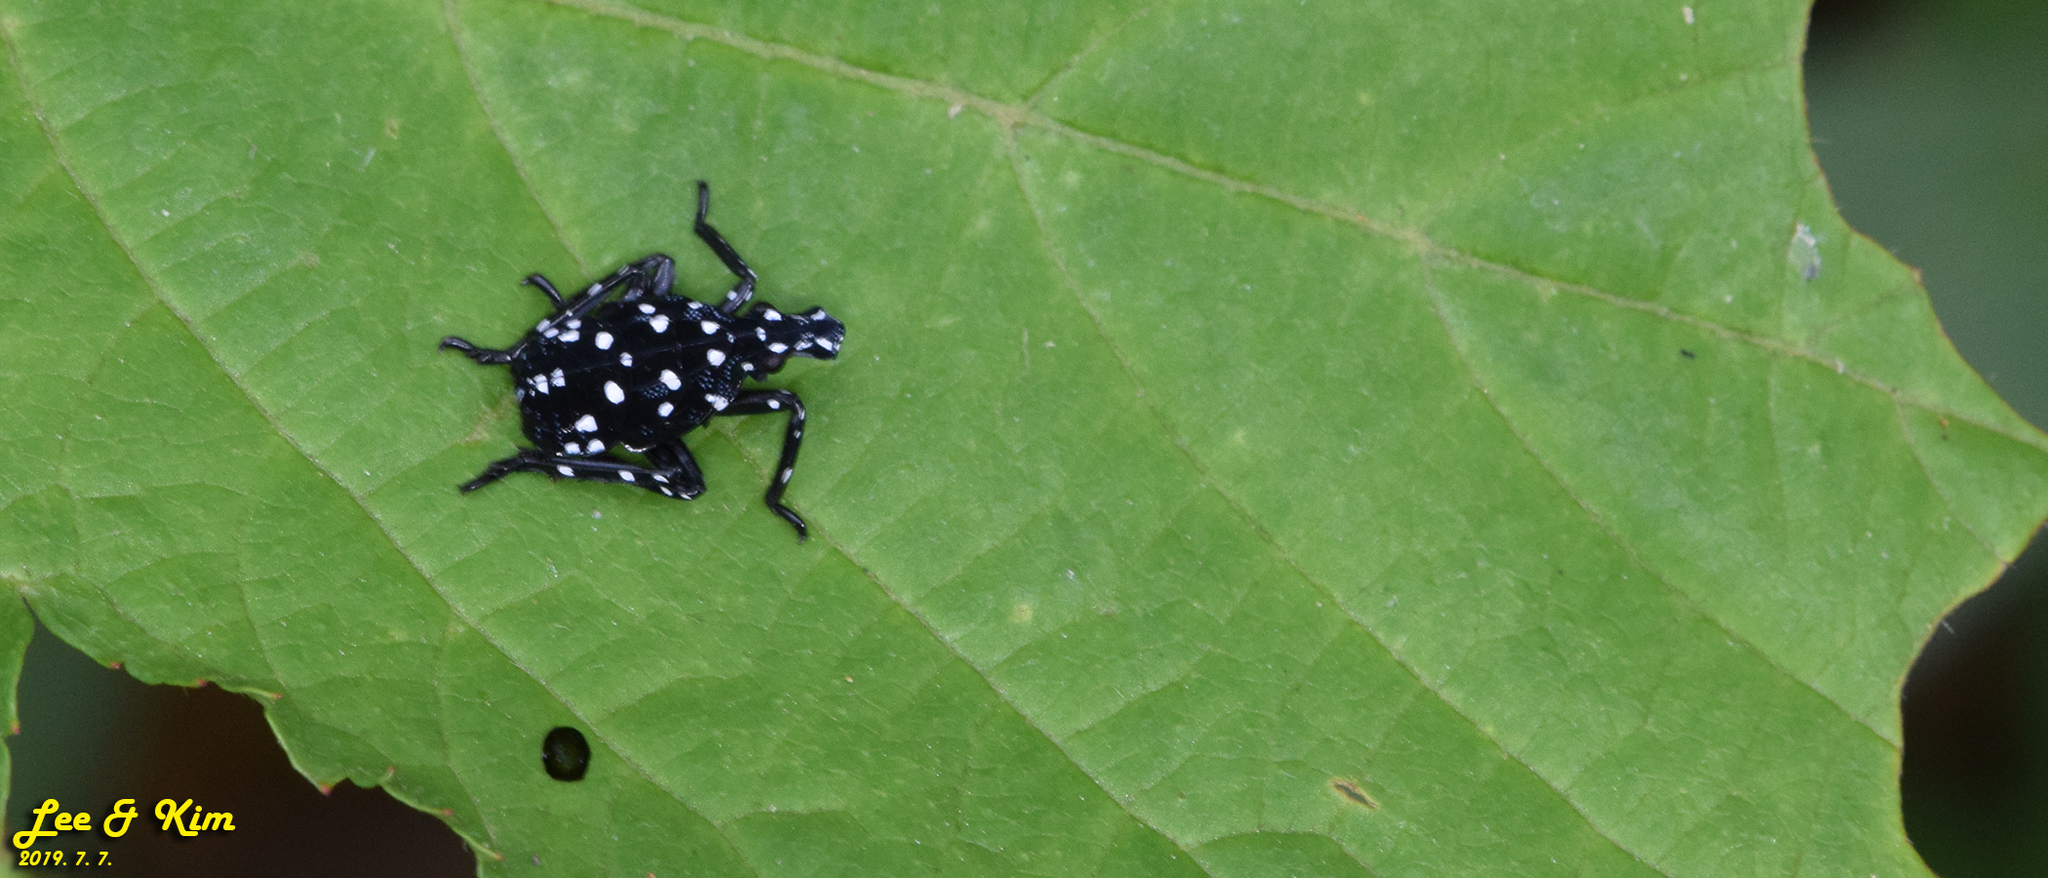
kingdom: Animalia
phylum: Arthropoda
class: Insecta
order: Hemiptera
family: Fulgoridae
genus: Lycorma
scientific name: Lycorma delicatula
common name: Spotted lanternfly
